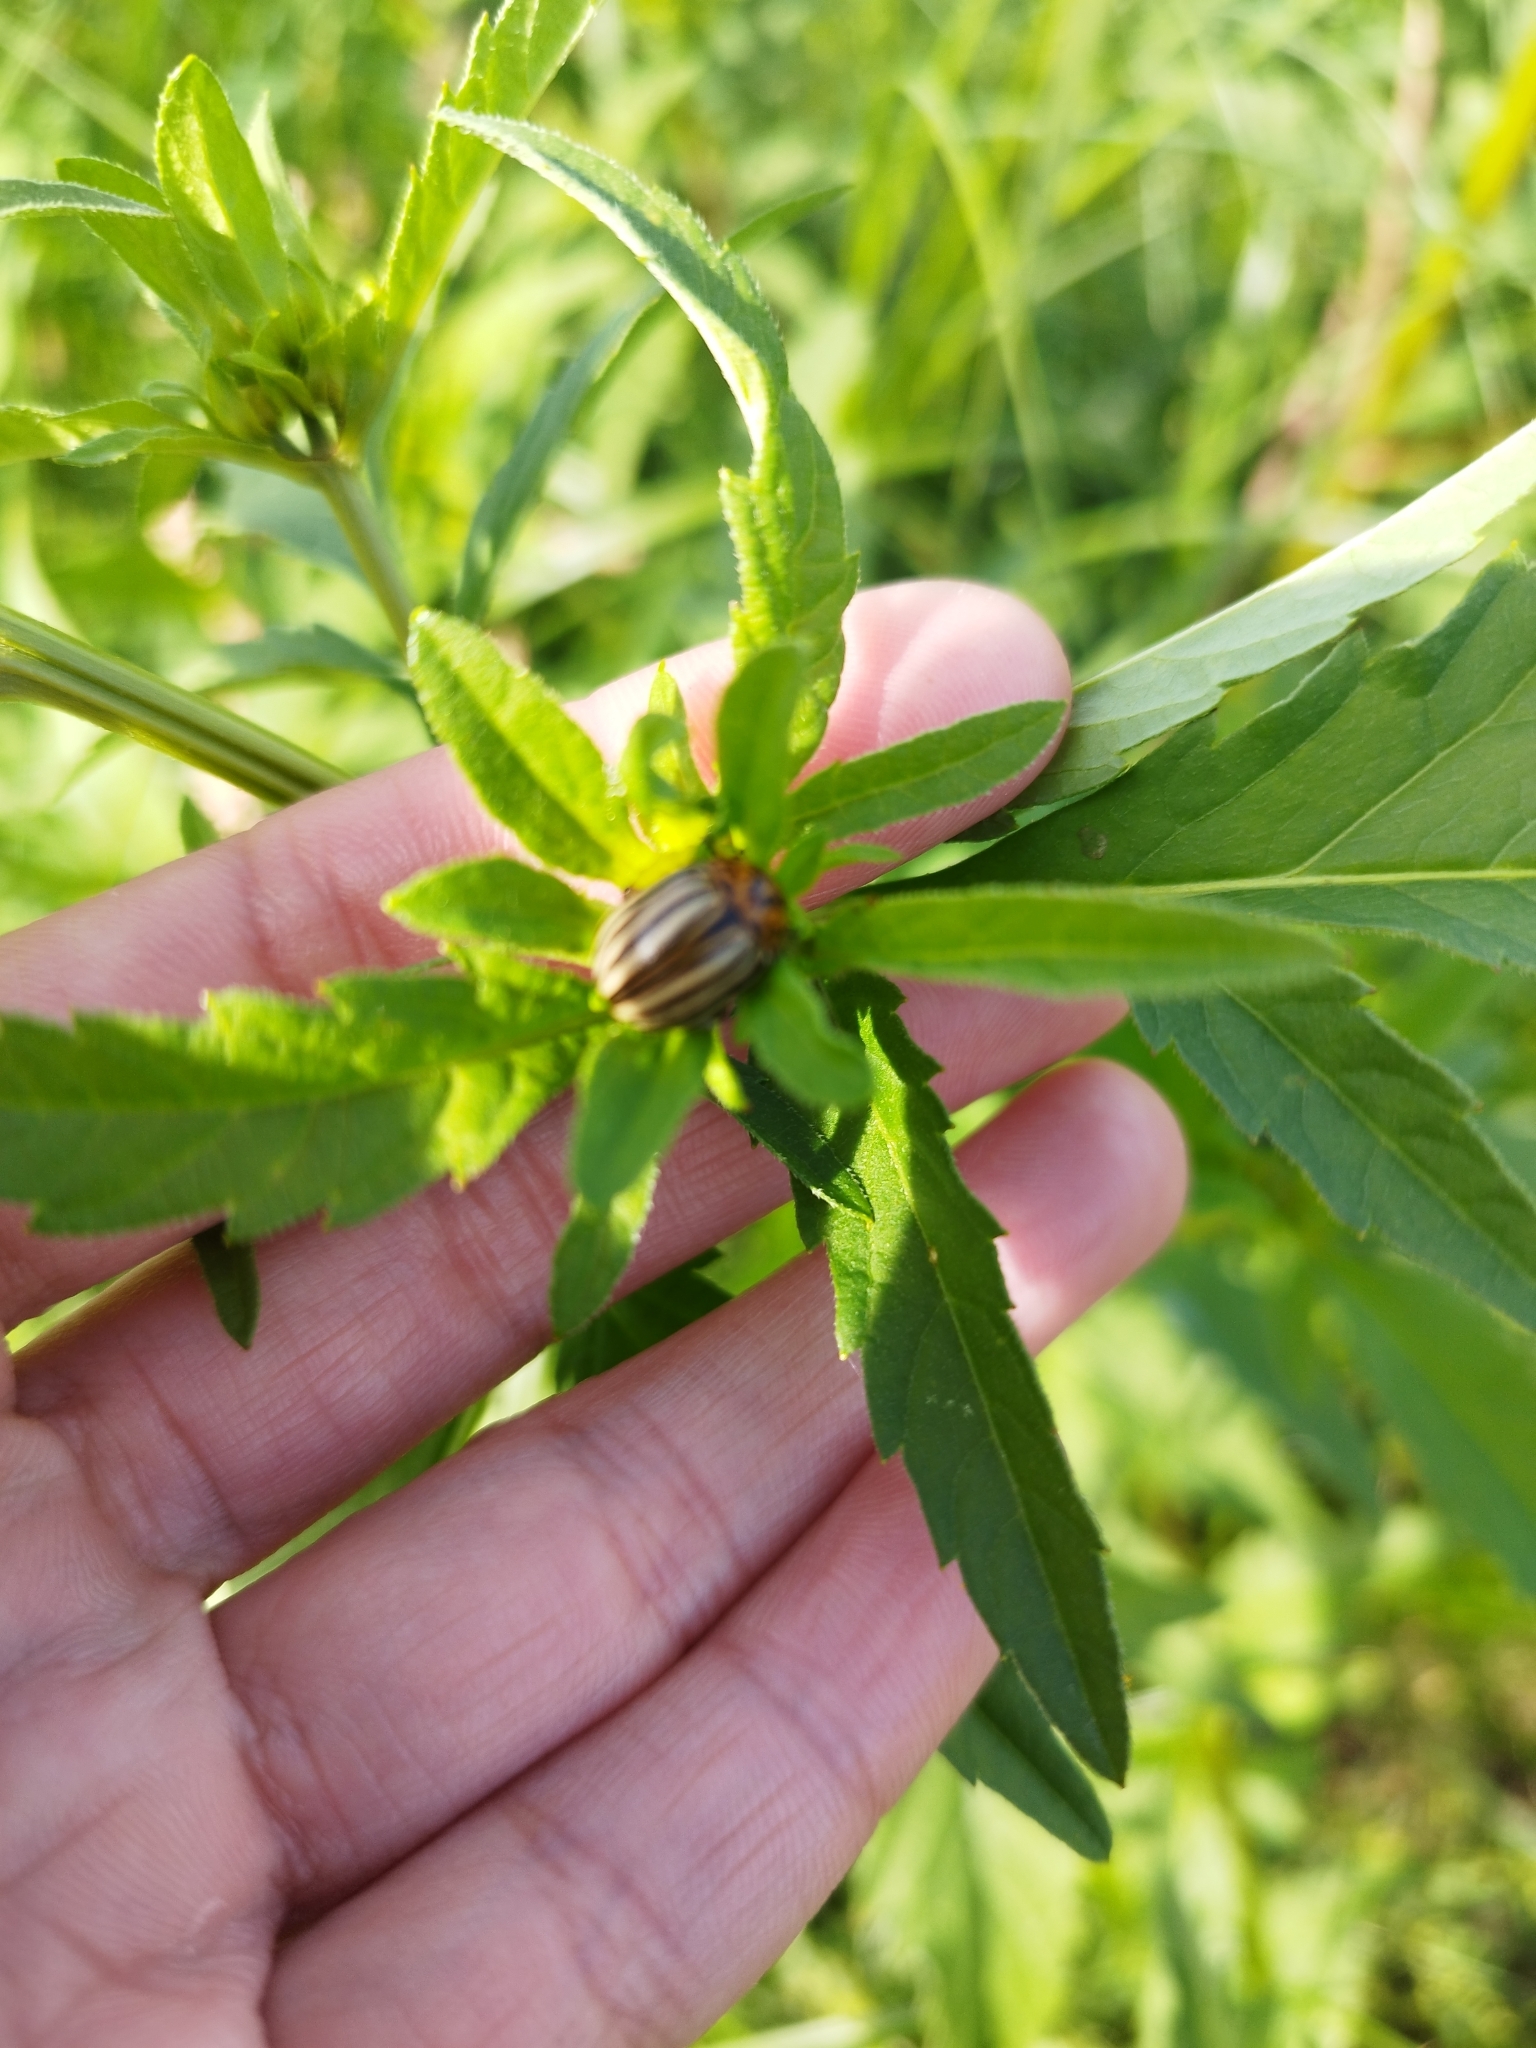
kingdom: Animalia
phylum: Arthropoda
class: Insecta
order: Coleoptera
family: Chrysomelidae
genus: Leptinotarsa
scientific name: Leptinotarsa decemlineata
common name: Colorado potato beetle
